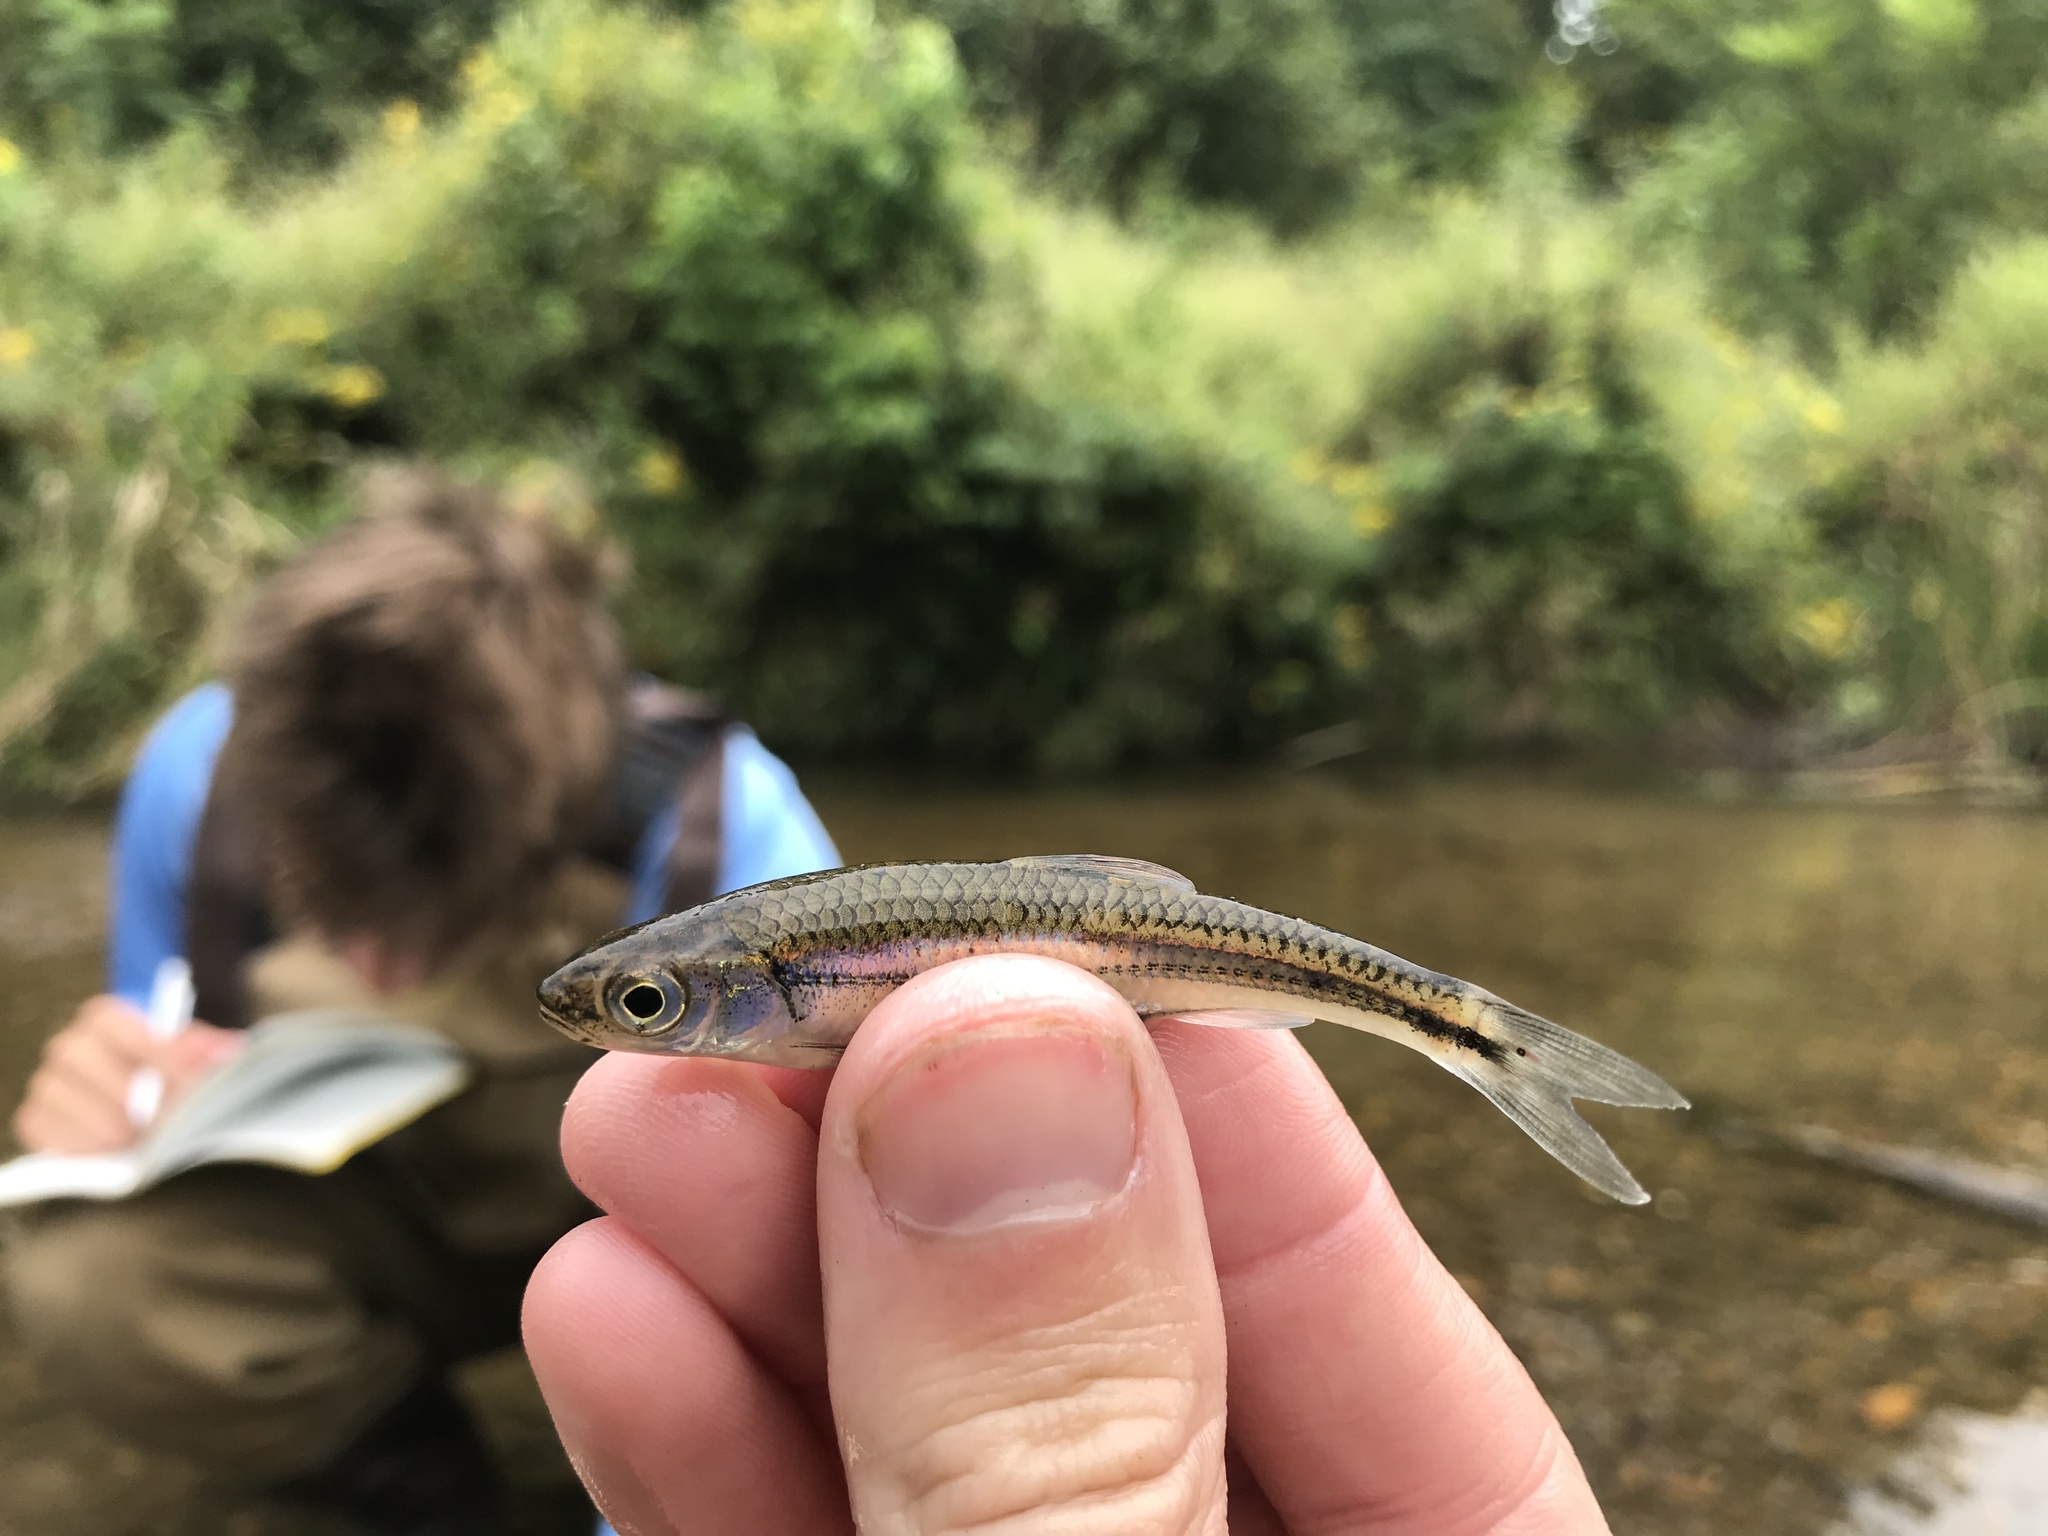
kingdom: Animalia
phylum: Chordata
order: Cypriniformes
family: Cyprinidae
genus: Notropis
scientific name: Notropis
